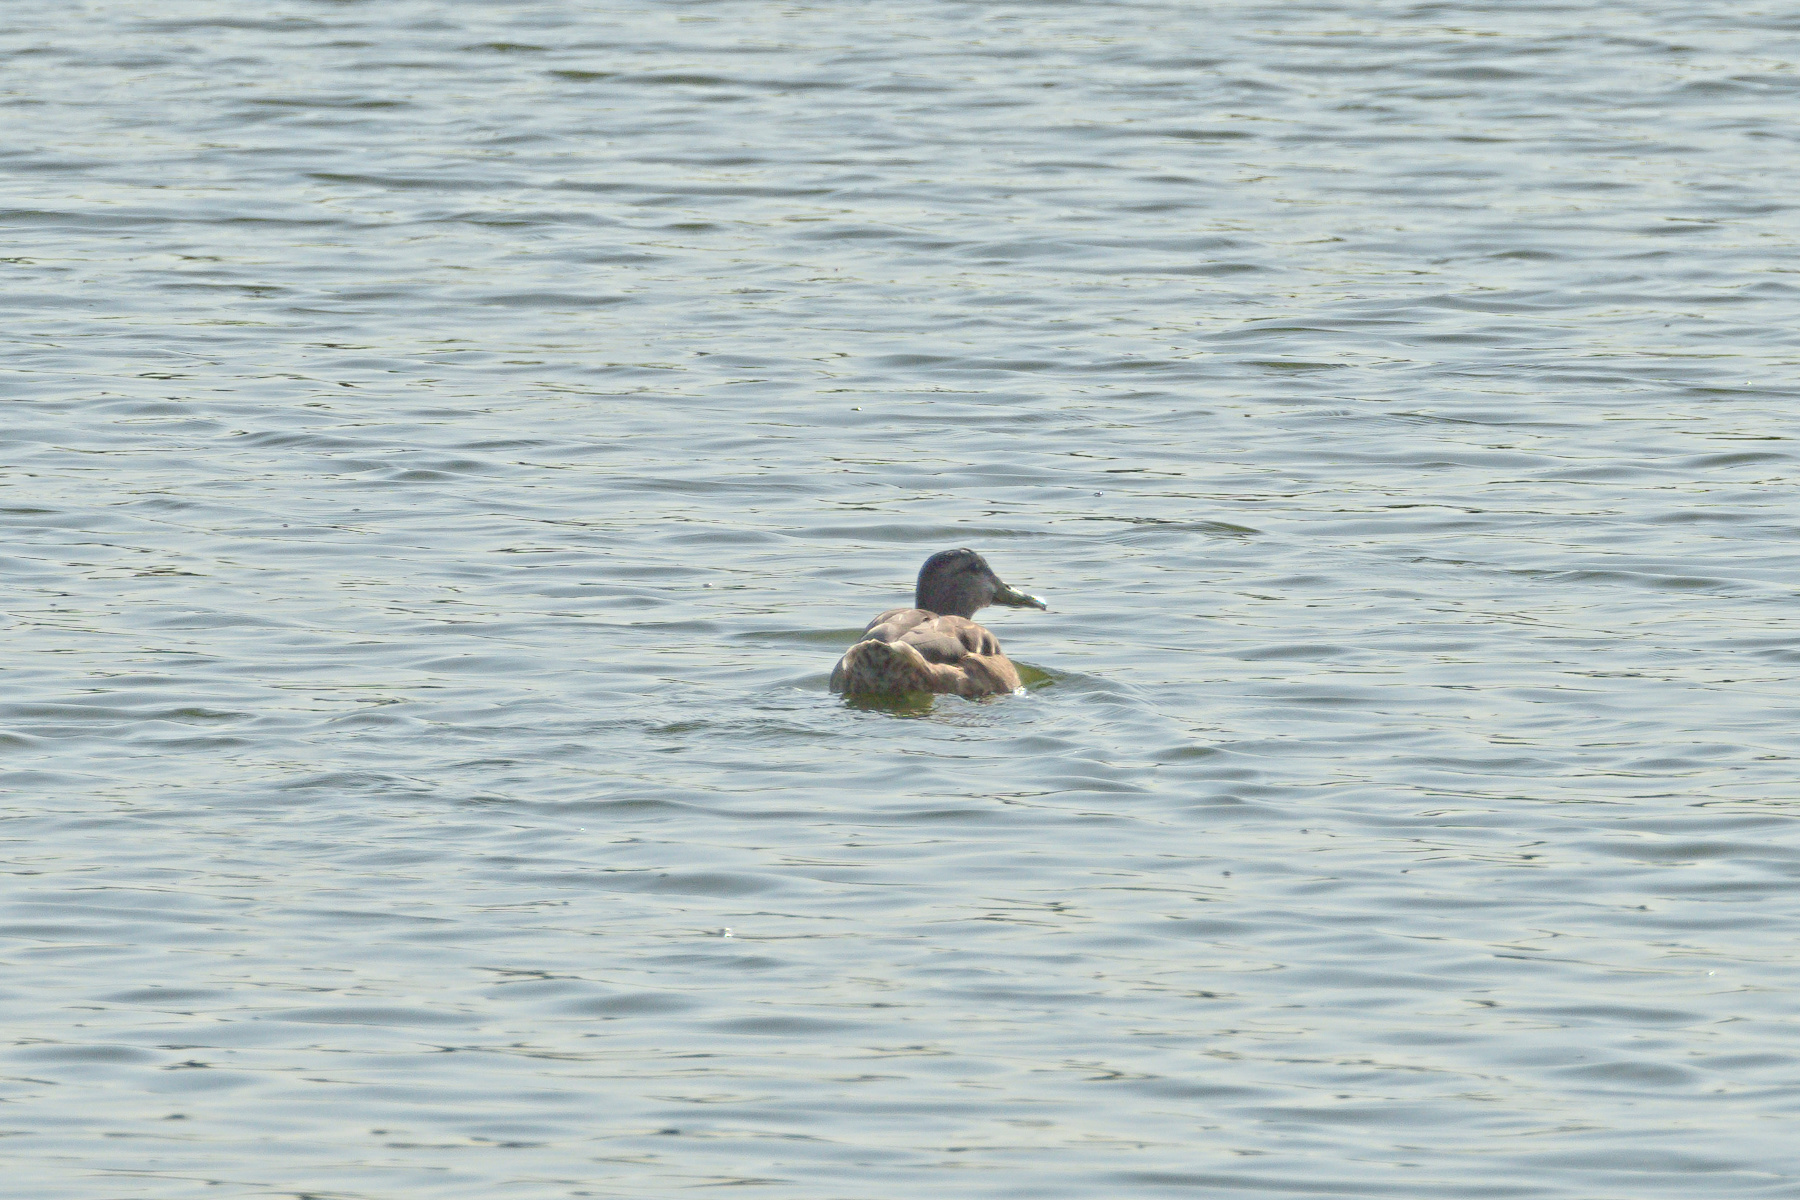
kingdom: Animalia
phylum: Chordata
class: Aves
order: Anseriformes
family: Anatidae
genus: Anas
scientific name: Anas platyrhynchos
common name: Mallard
